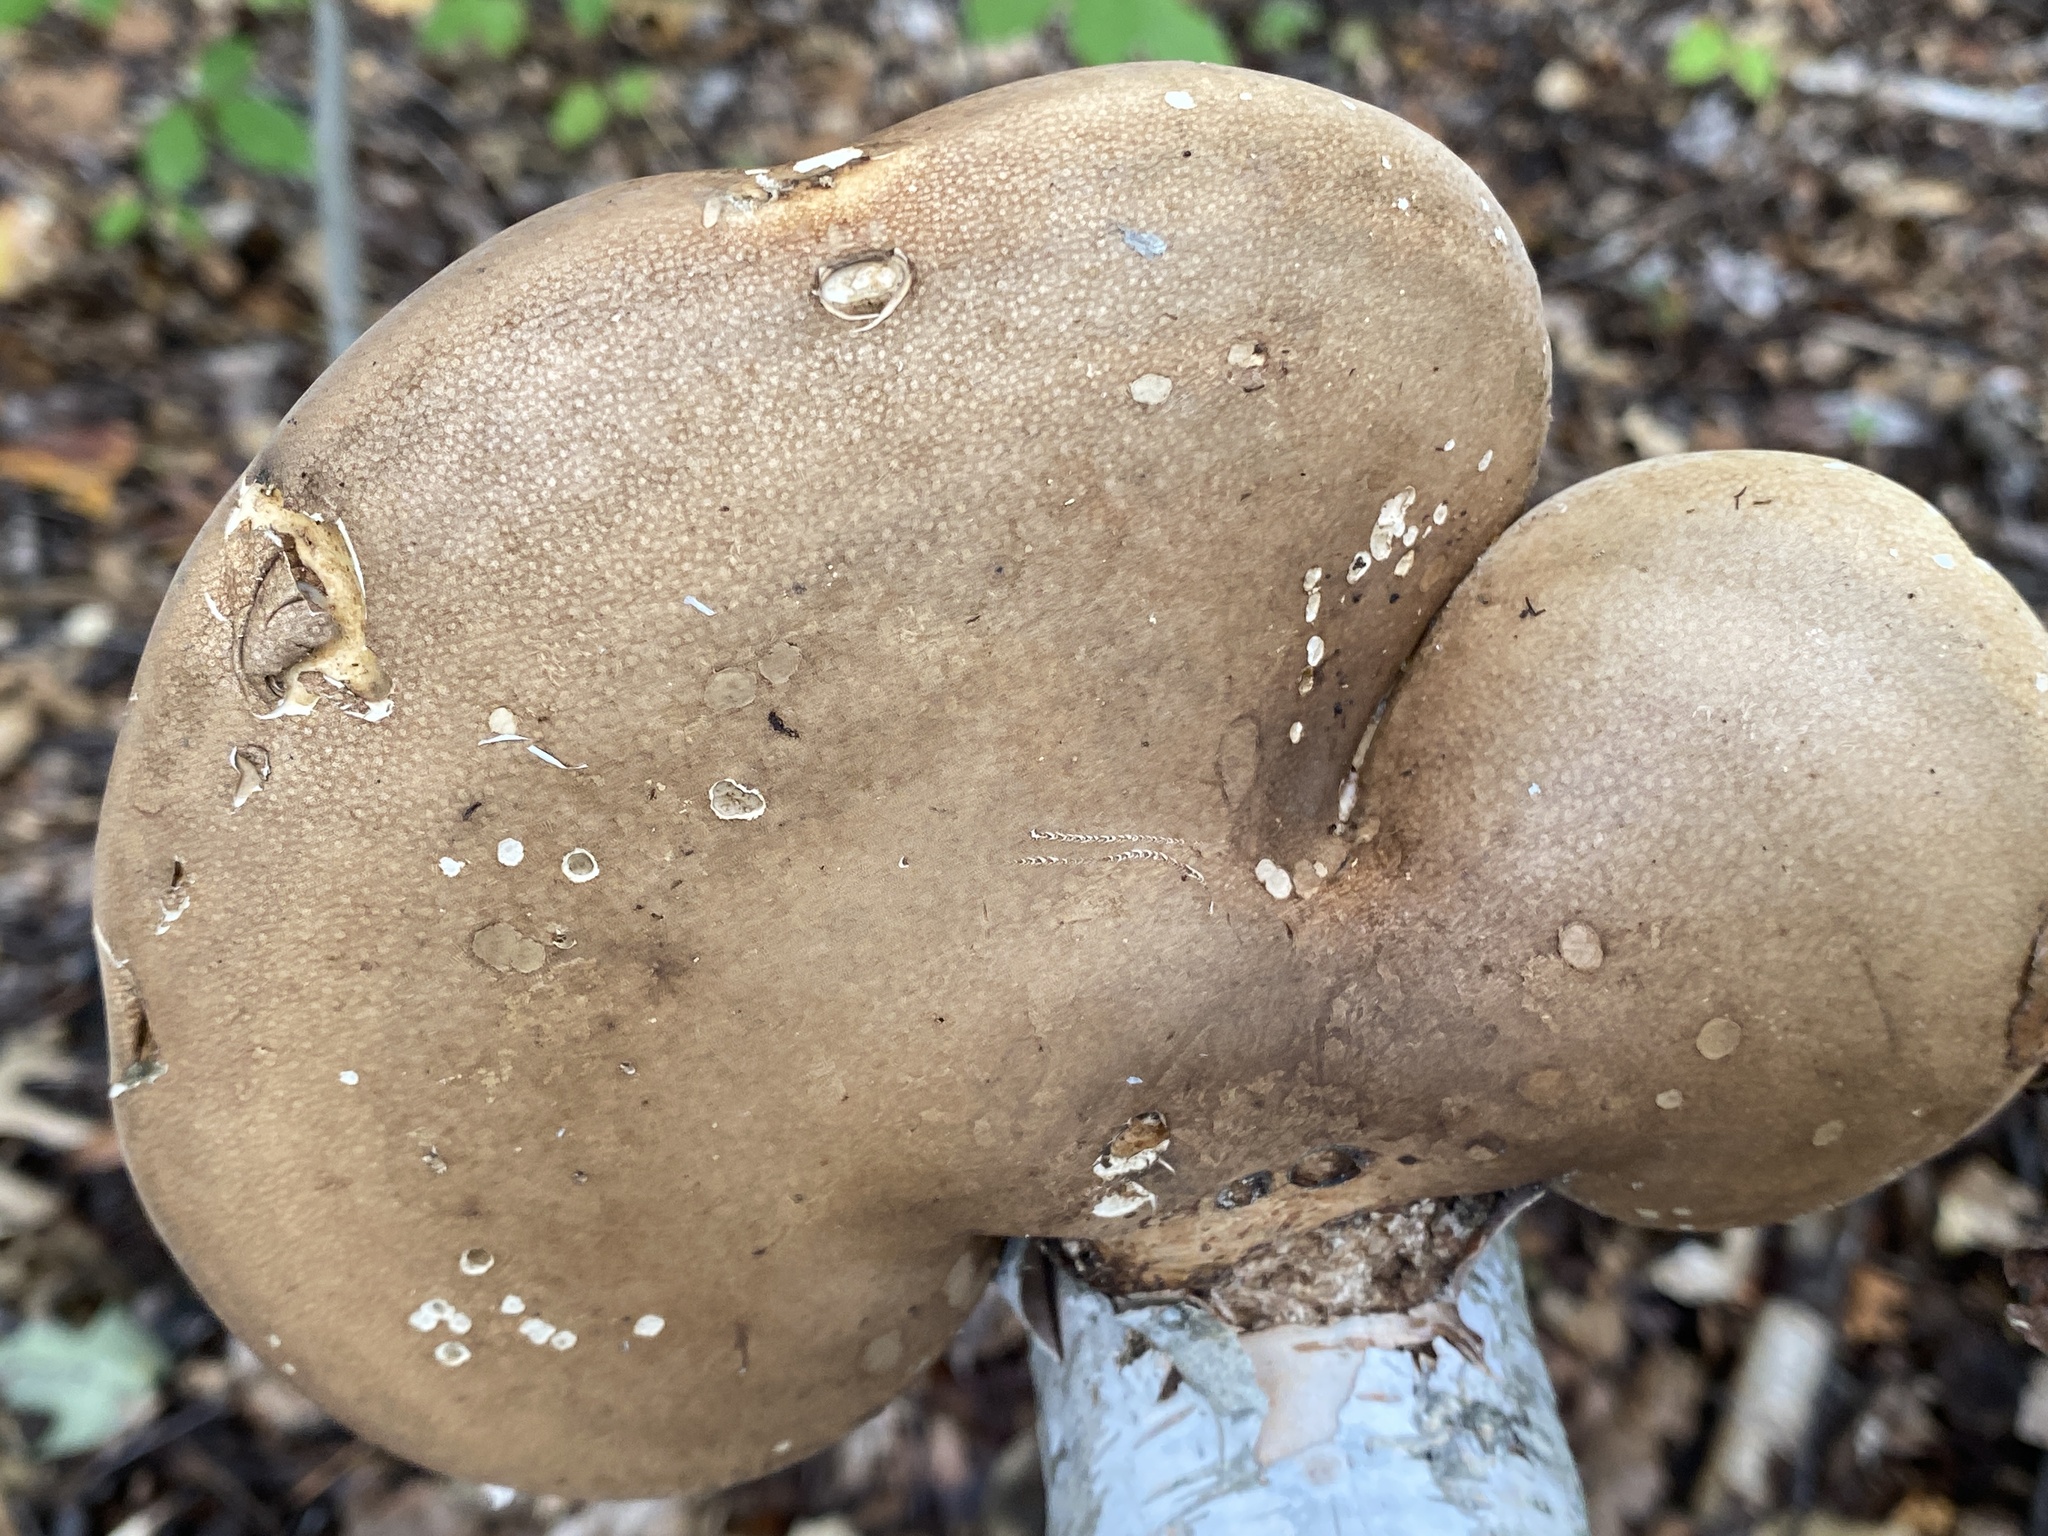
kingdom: Fungi
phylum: Basidiomycota
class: Agaricomycetes
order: Polyporales
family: Fomitopsidaceae
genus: Fomitopsis
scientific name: Fomitopsis betulina
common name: Birch polypore
